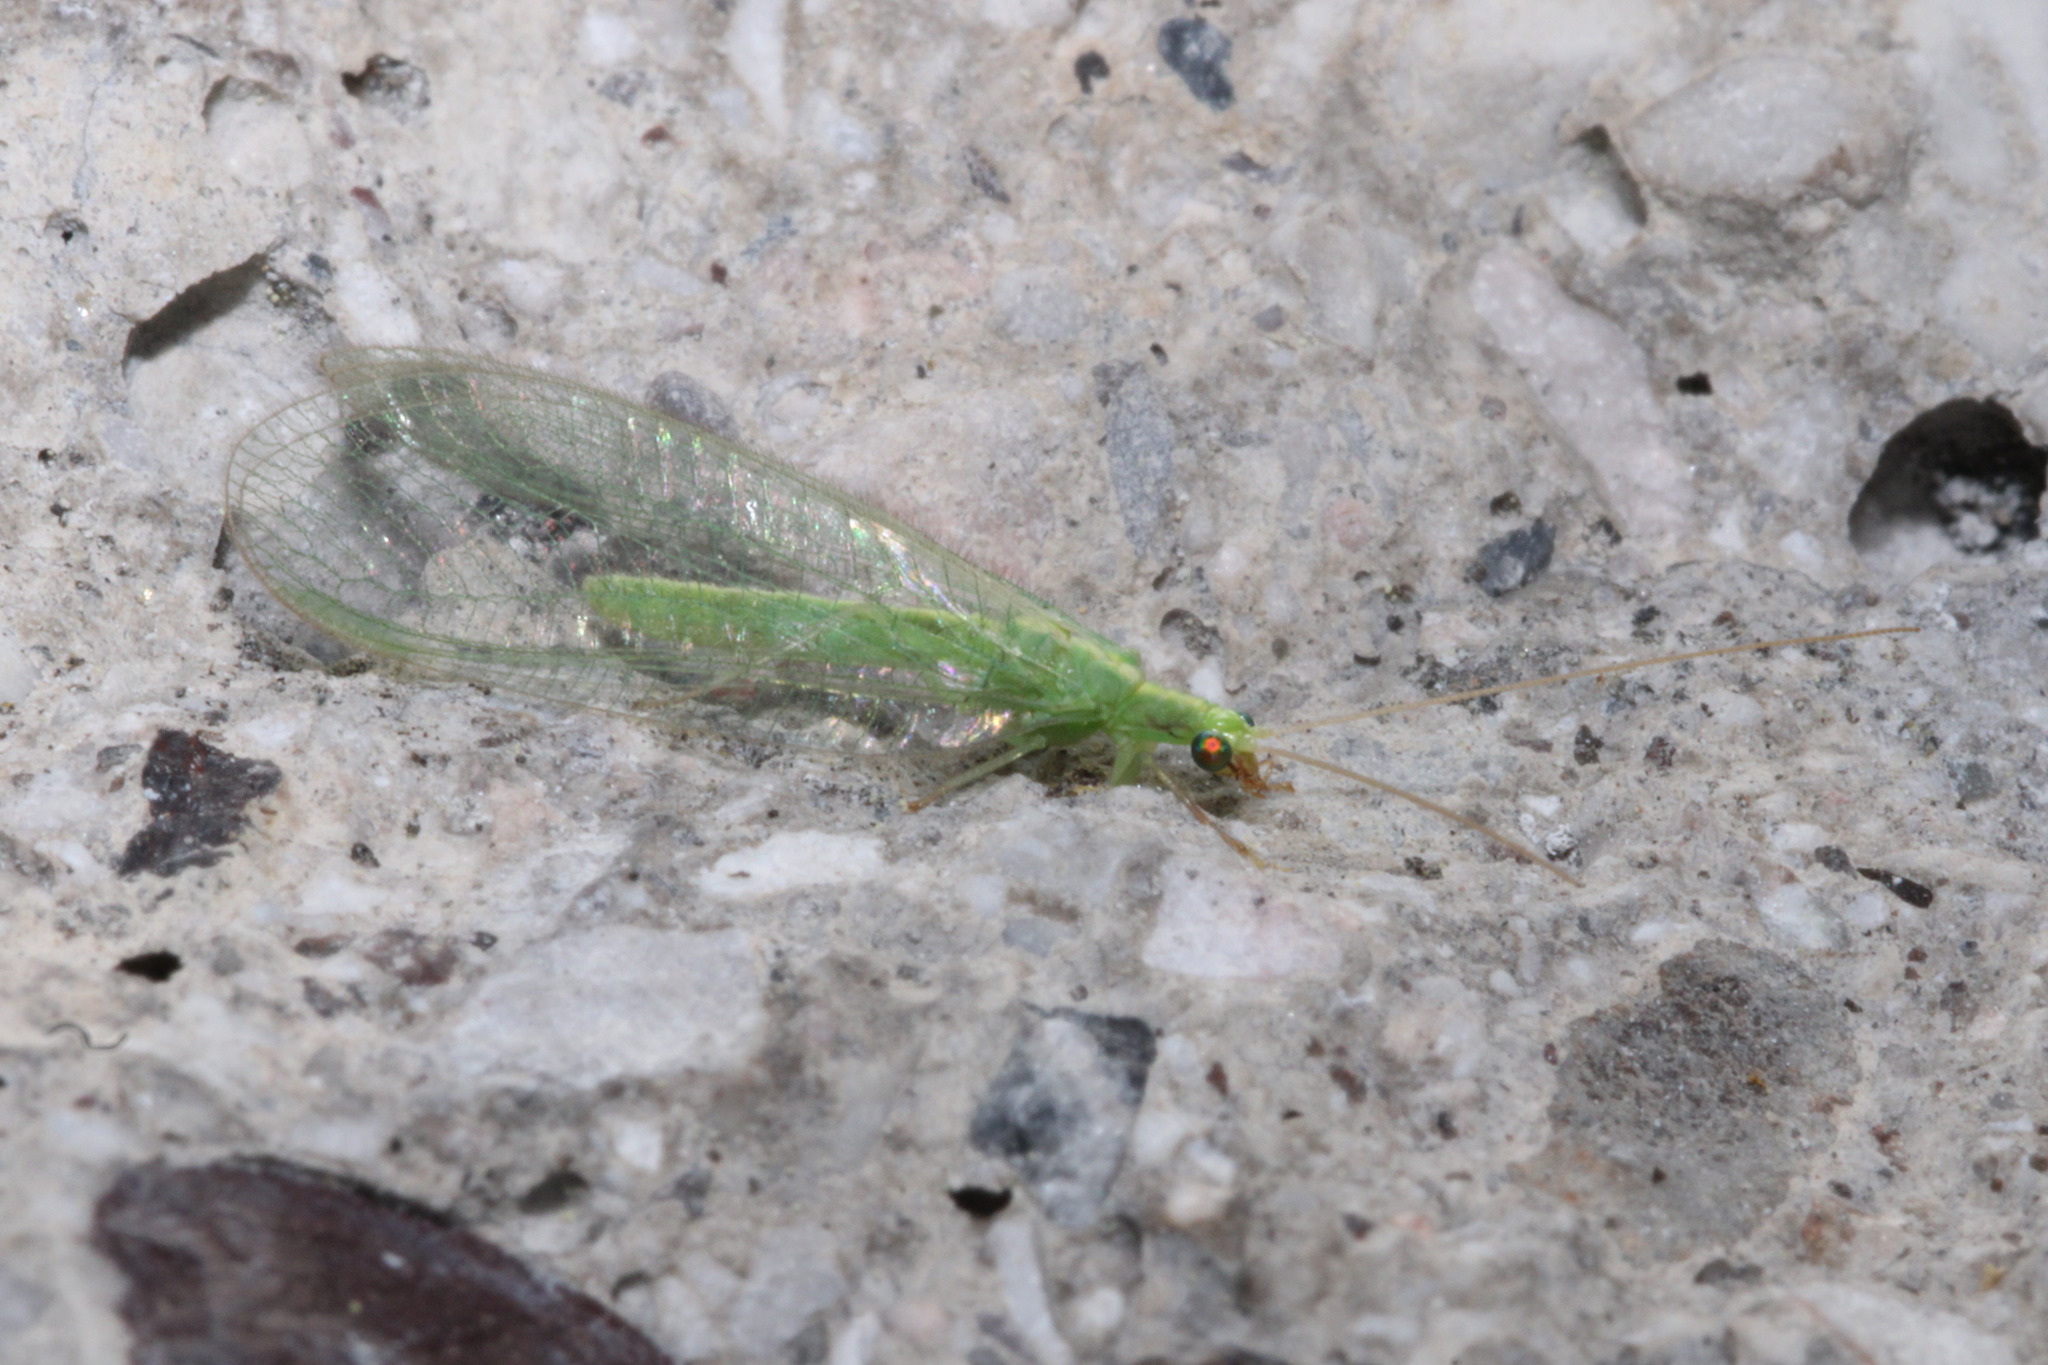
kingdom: Animalia
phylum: Arthropoda
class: Insecta
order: Neuroptera
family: Chrysopidae
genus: Chrysoperla
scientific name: Chrysoperla
